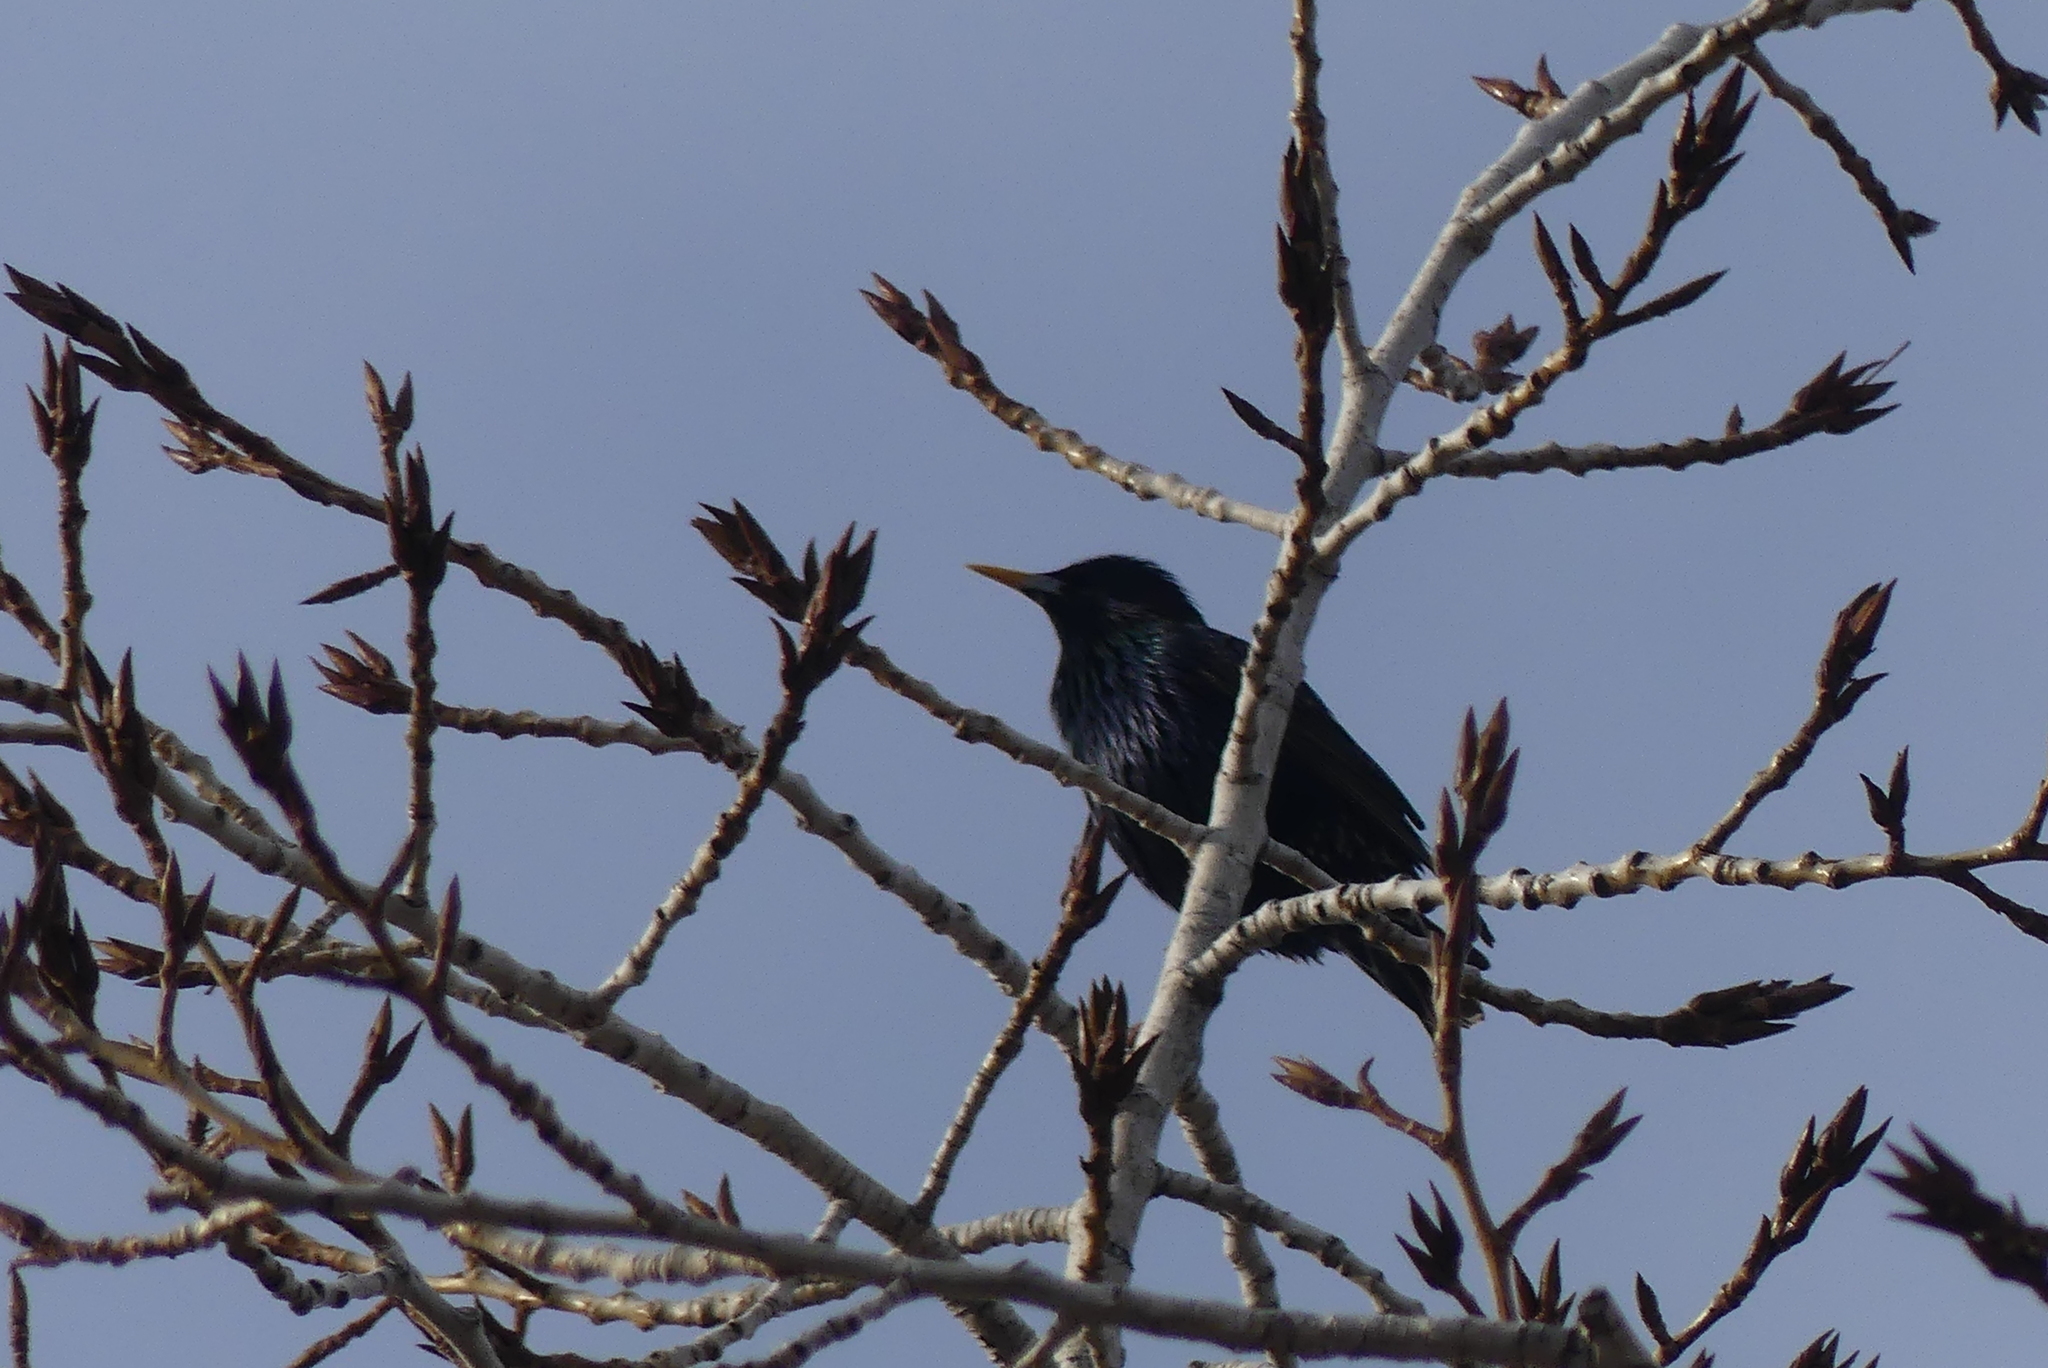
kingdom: Animalia
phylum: Chordata
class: Aves
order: Passeriformes
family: Sturnidae
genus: Sturnus
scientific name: Sturnus vulgaris
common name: Common starling
